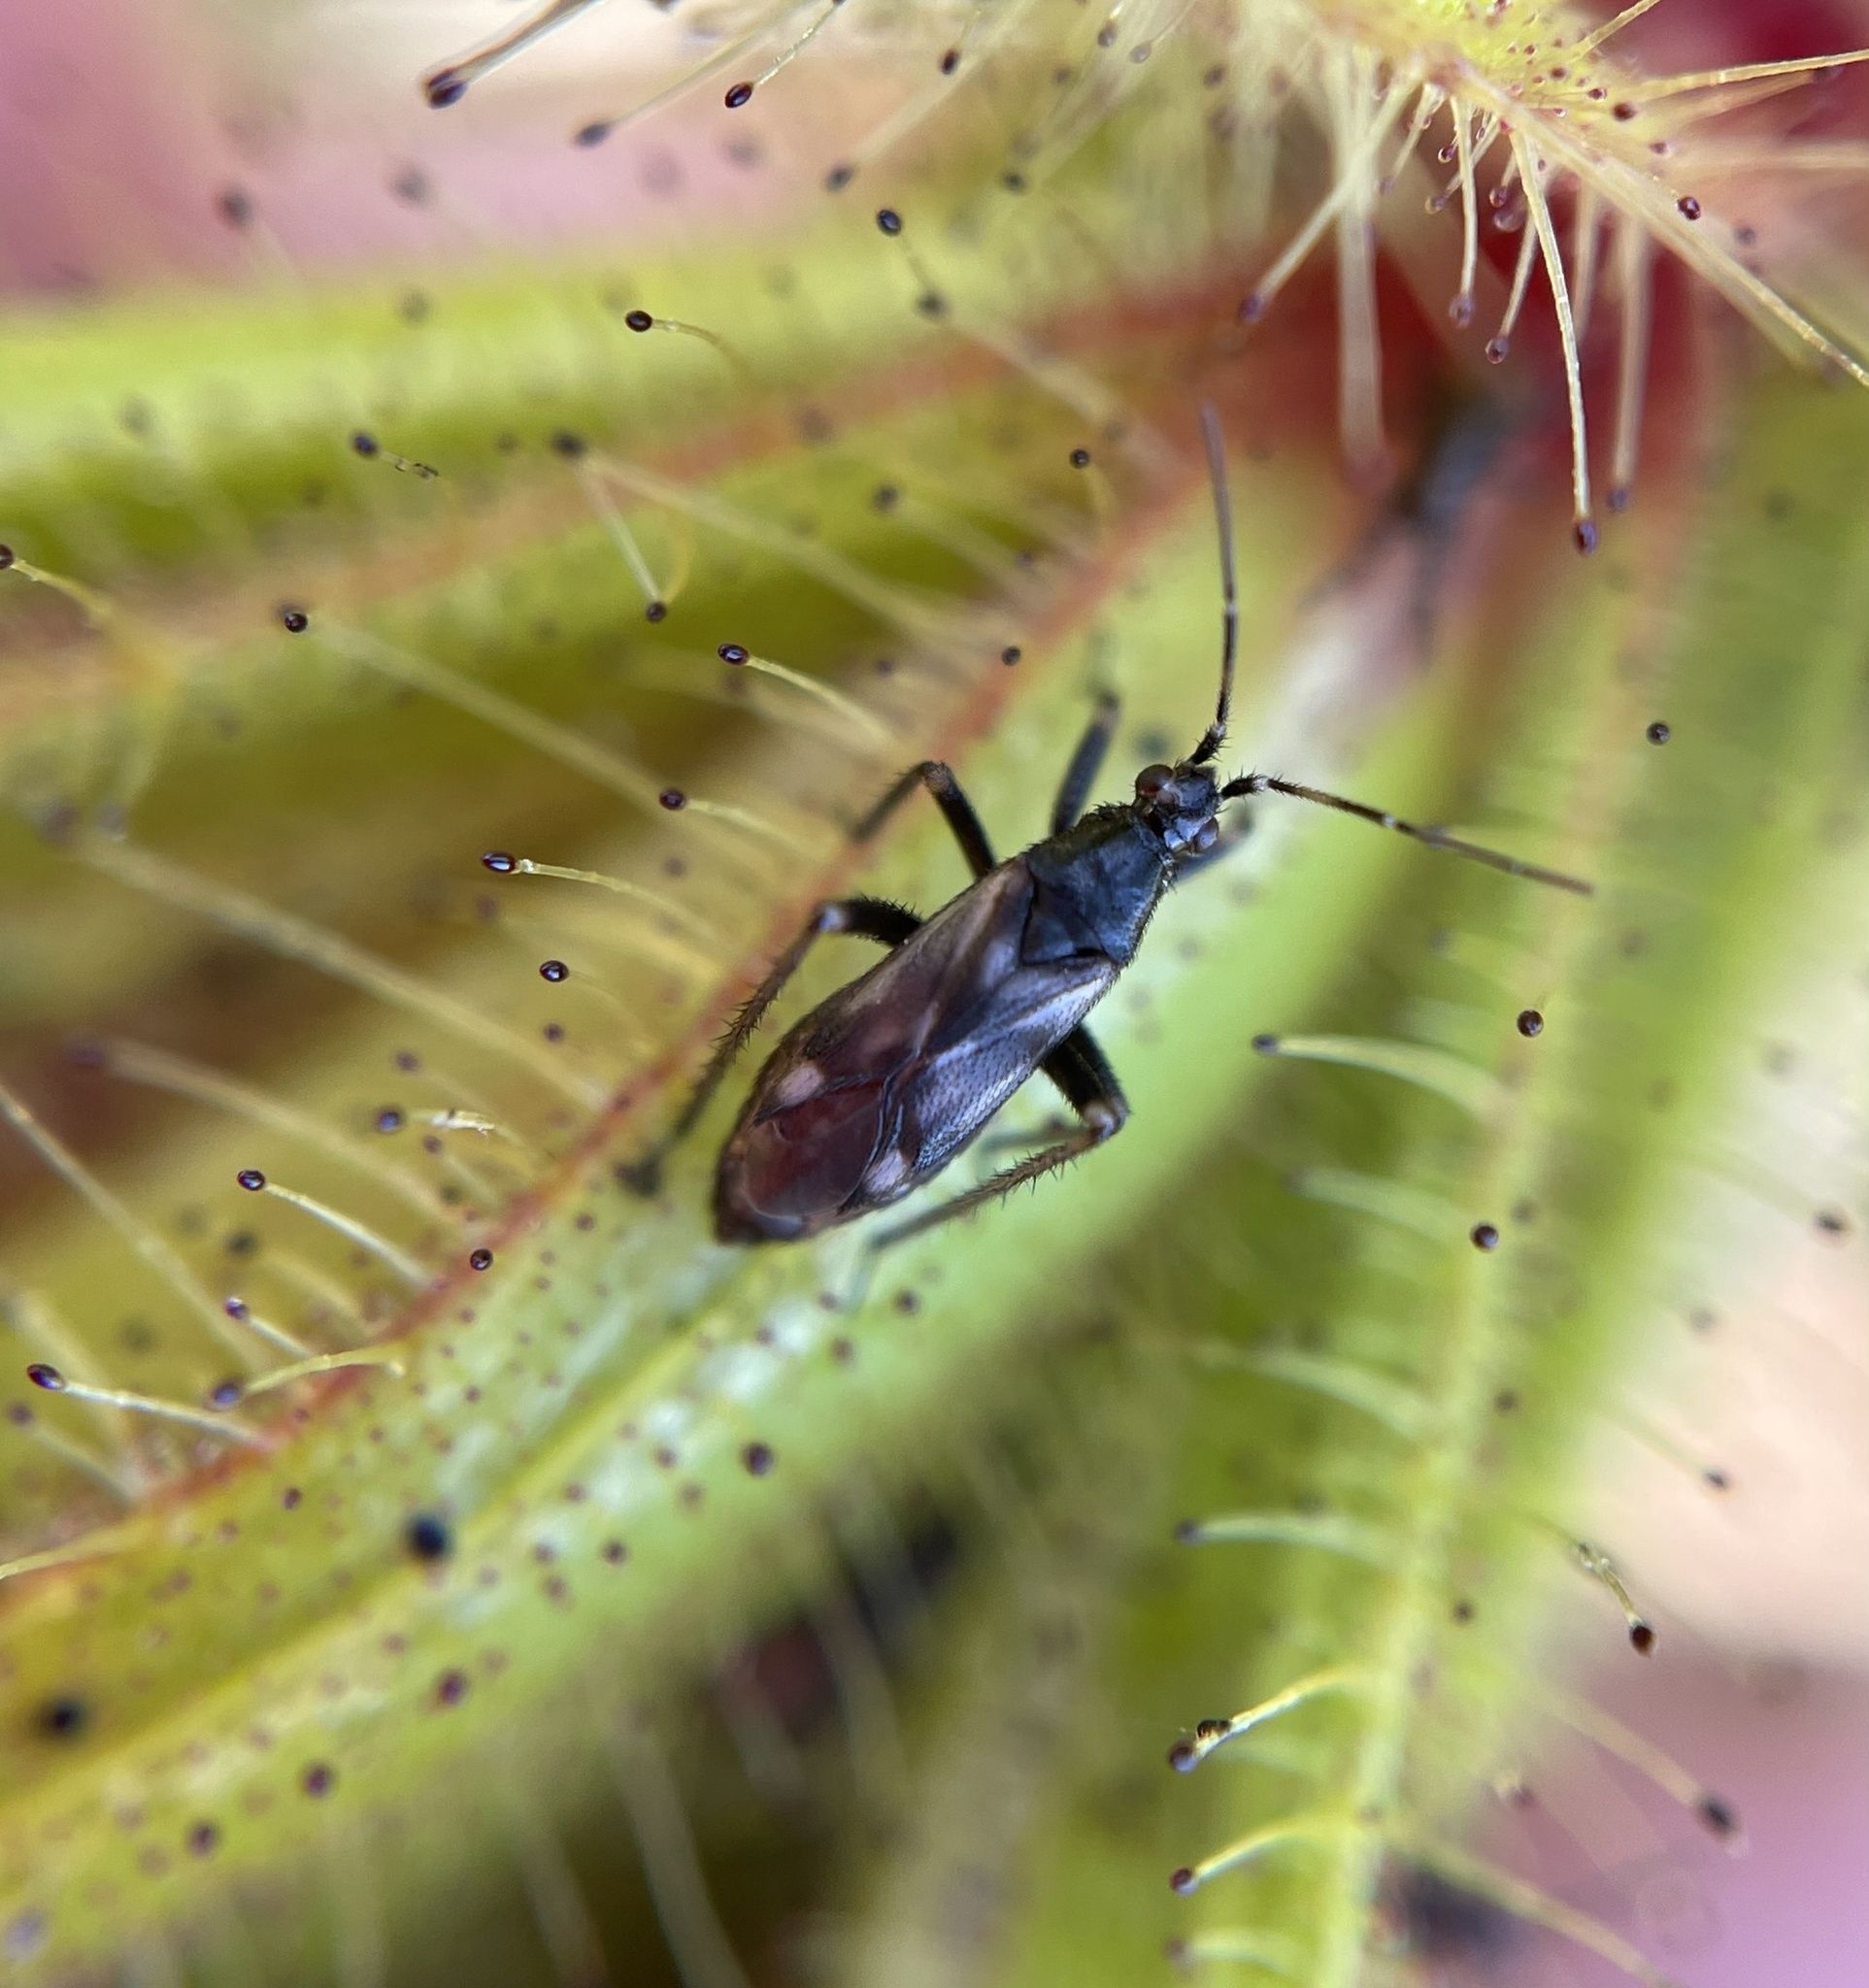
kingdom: Animalia
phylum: Arthropoda
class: Insecta
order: Hemiptera
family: Miridae
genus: Pameridea
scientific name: Pameridea roridulae
